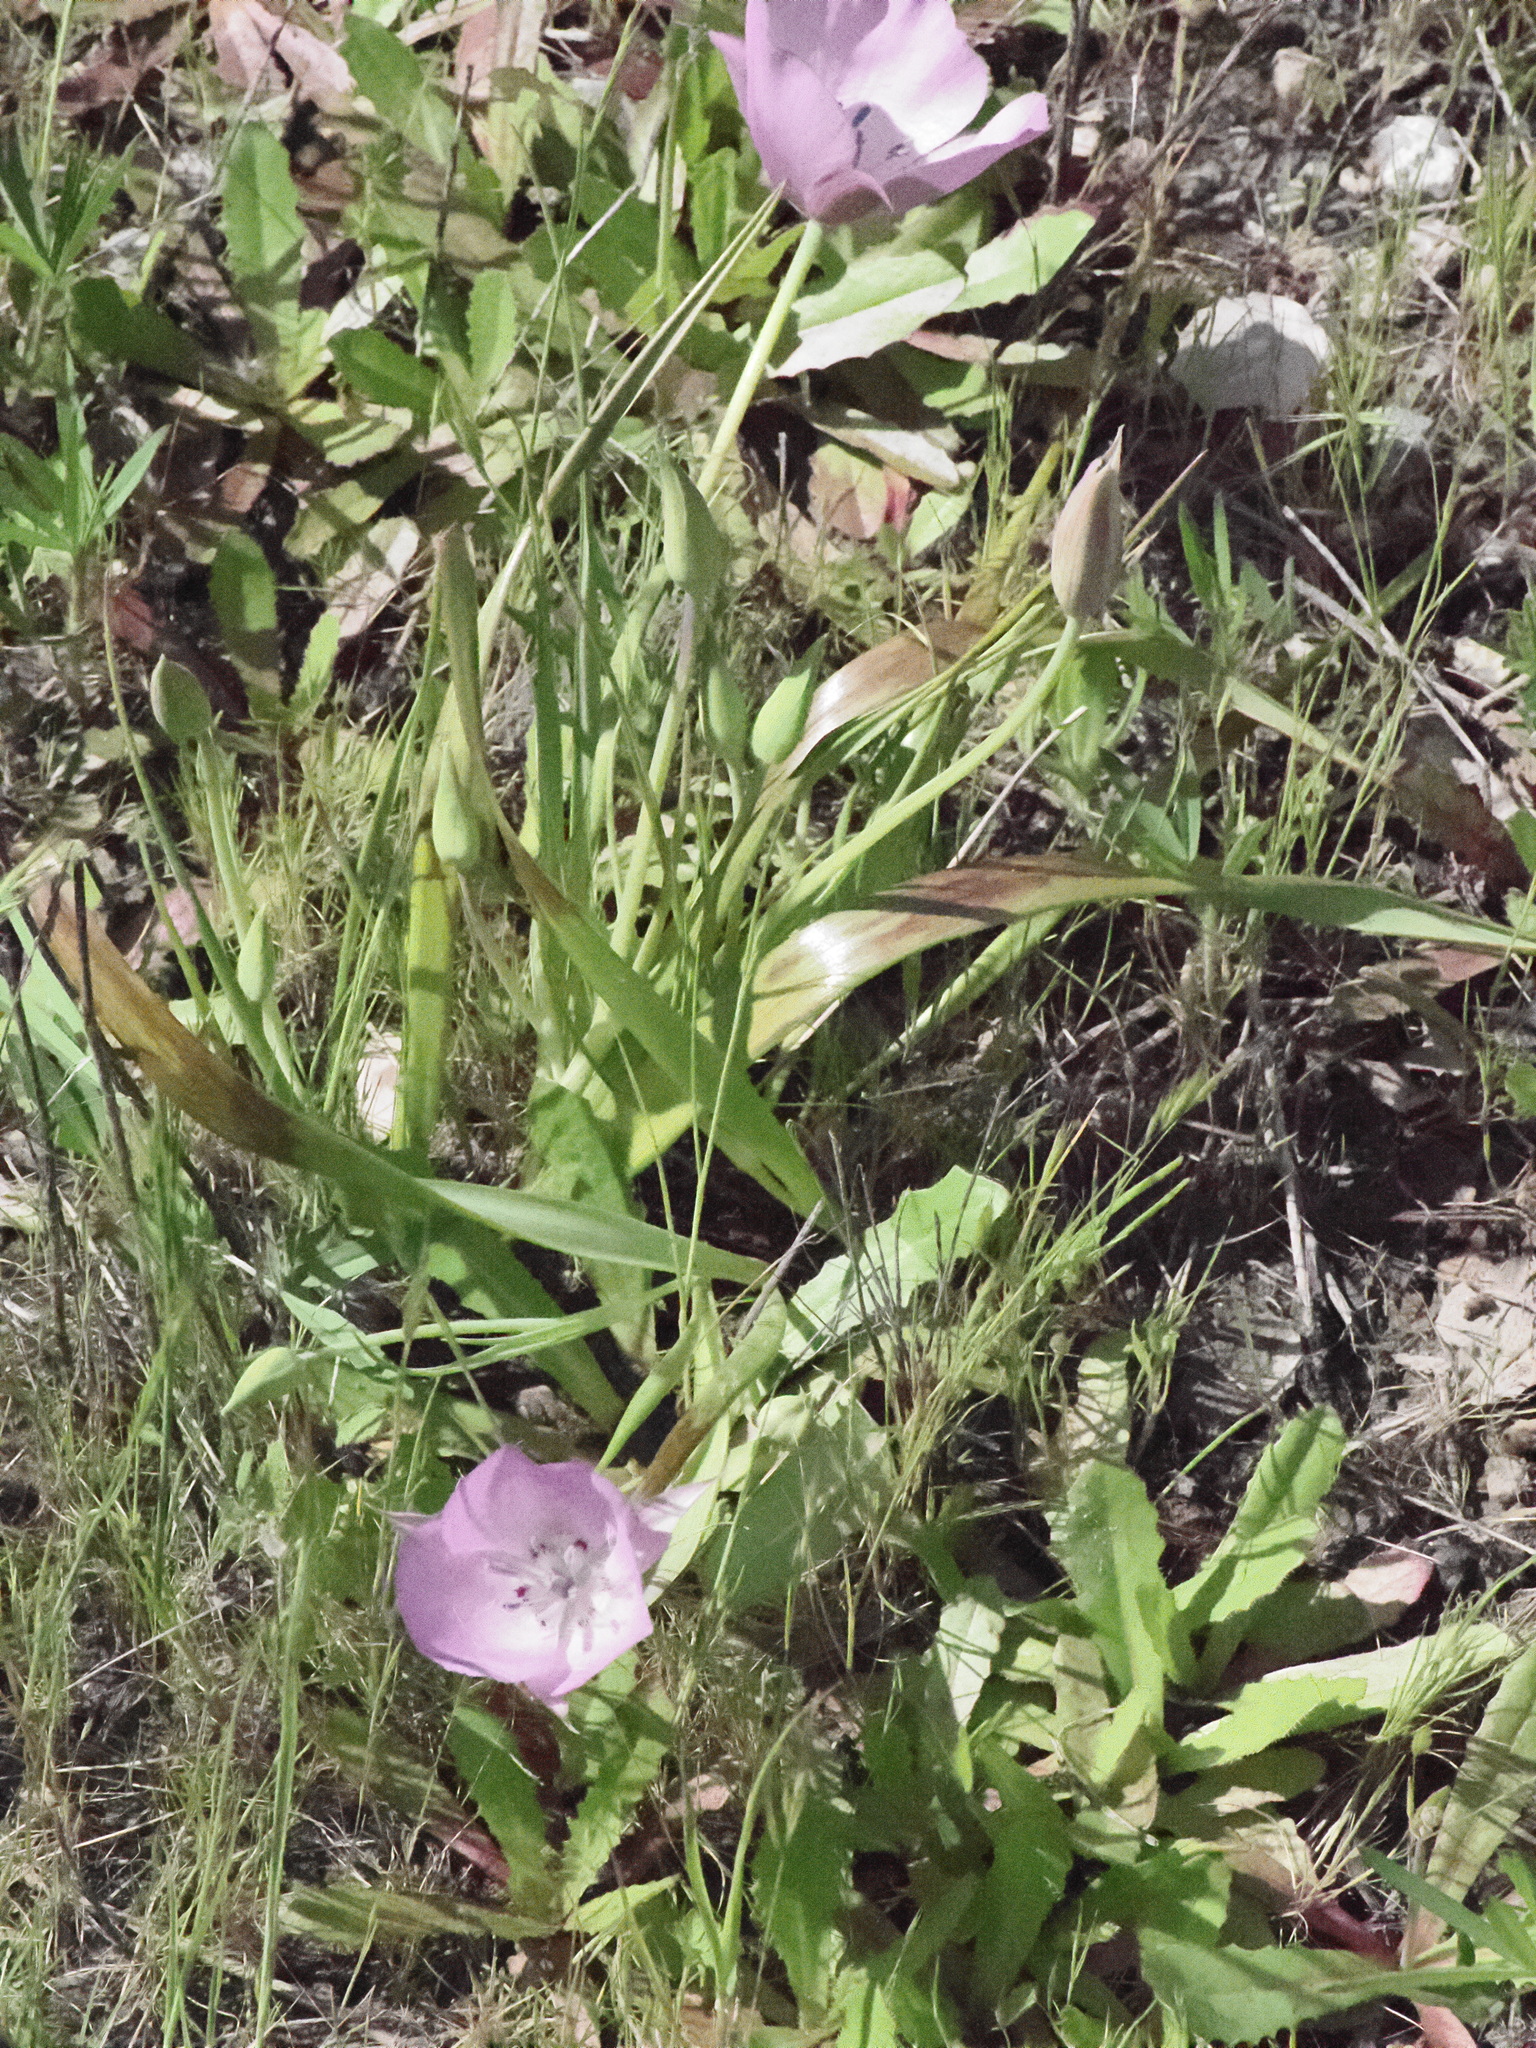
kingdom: Plantae
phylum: Tracheophyta
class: Liliopsida
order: Liliales
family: Liliaceae
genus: Calochortus
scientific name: Calochortus uniflorus
